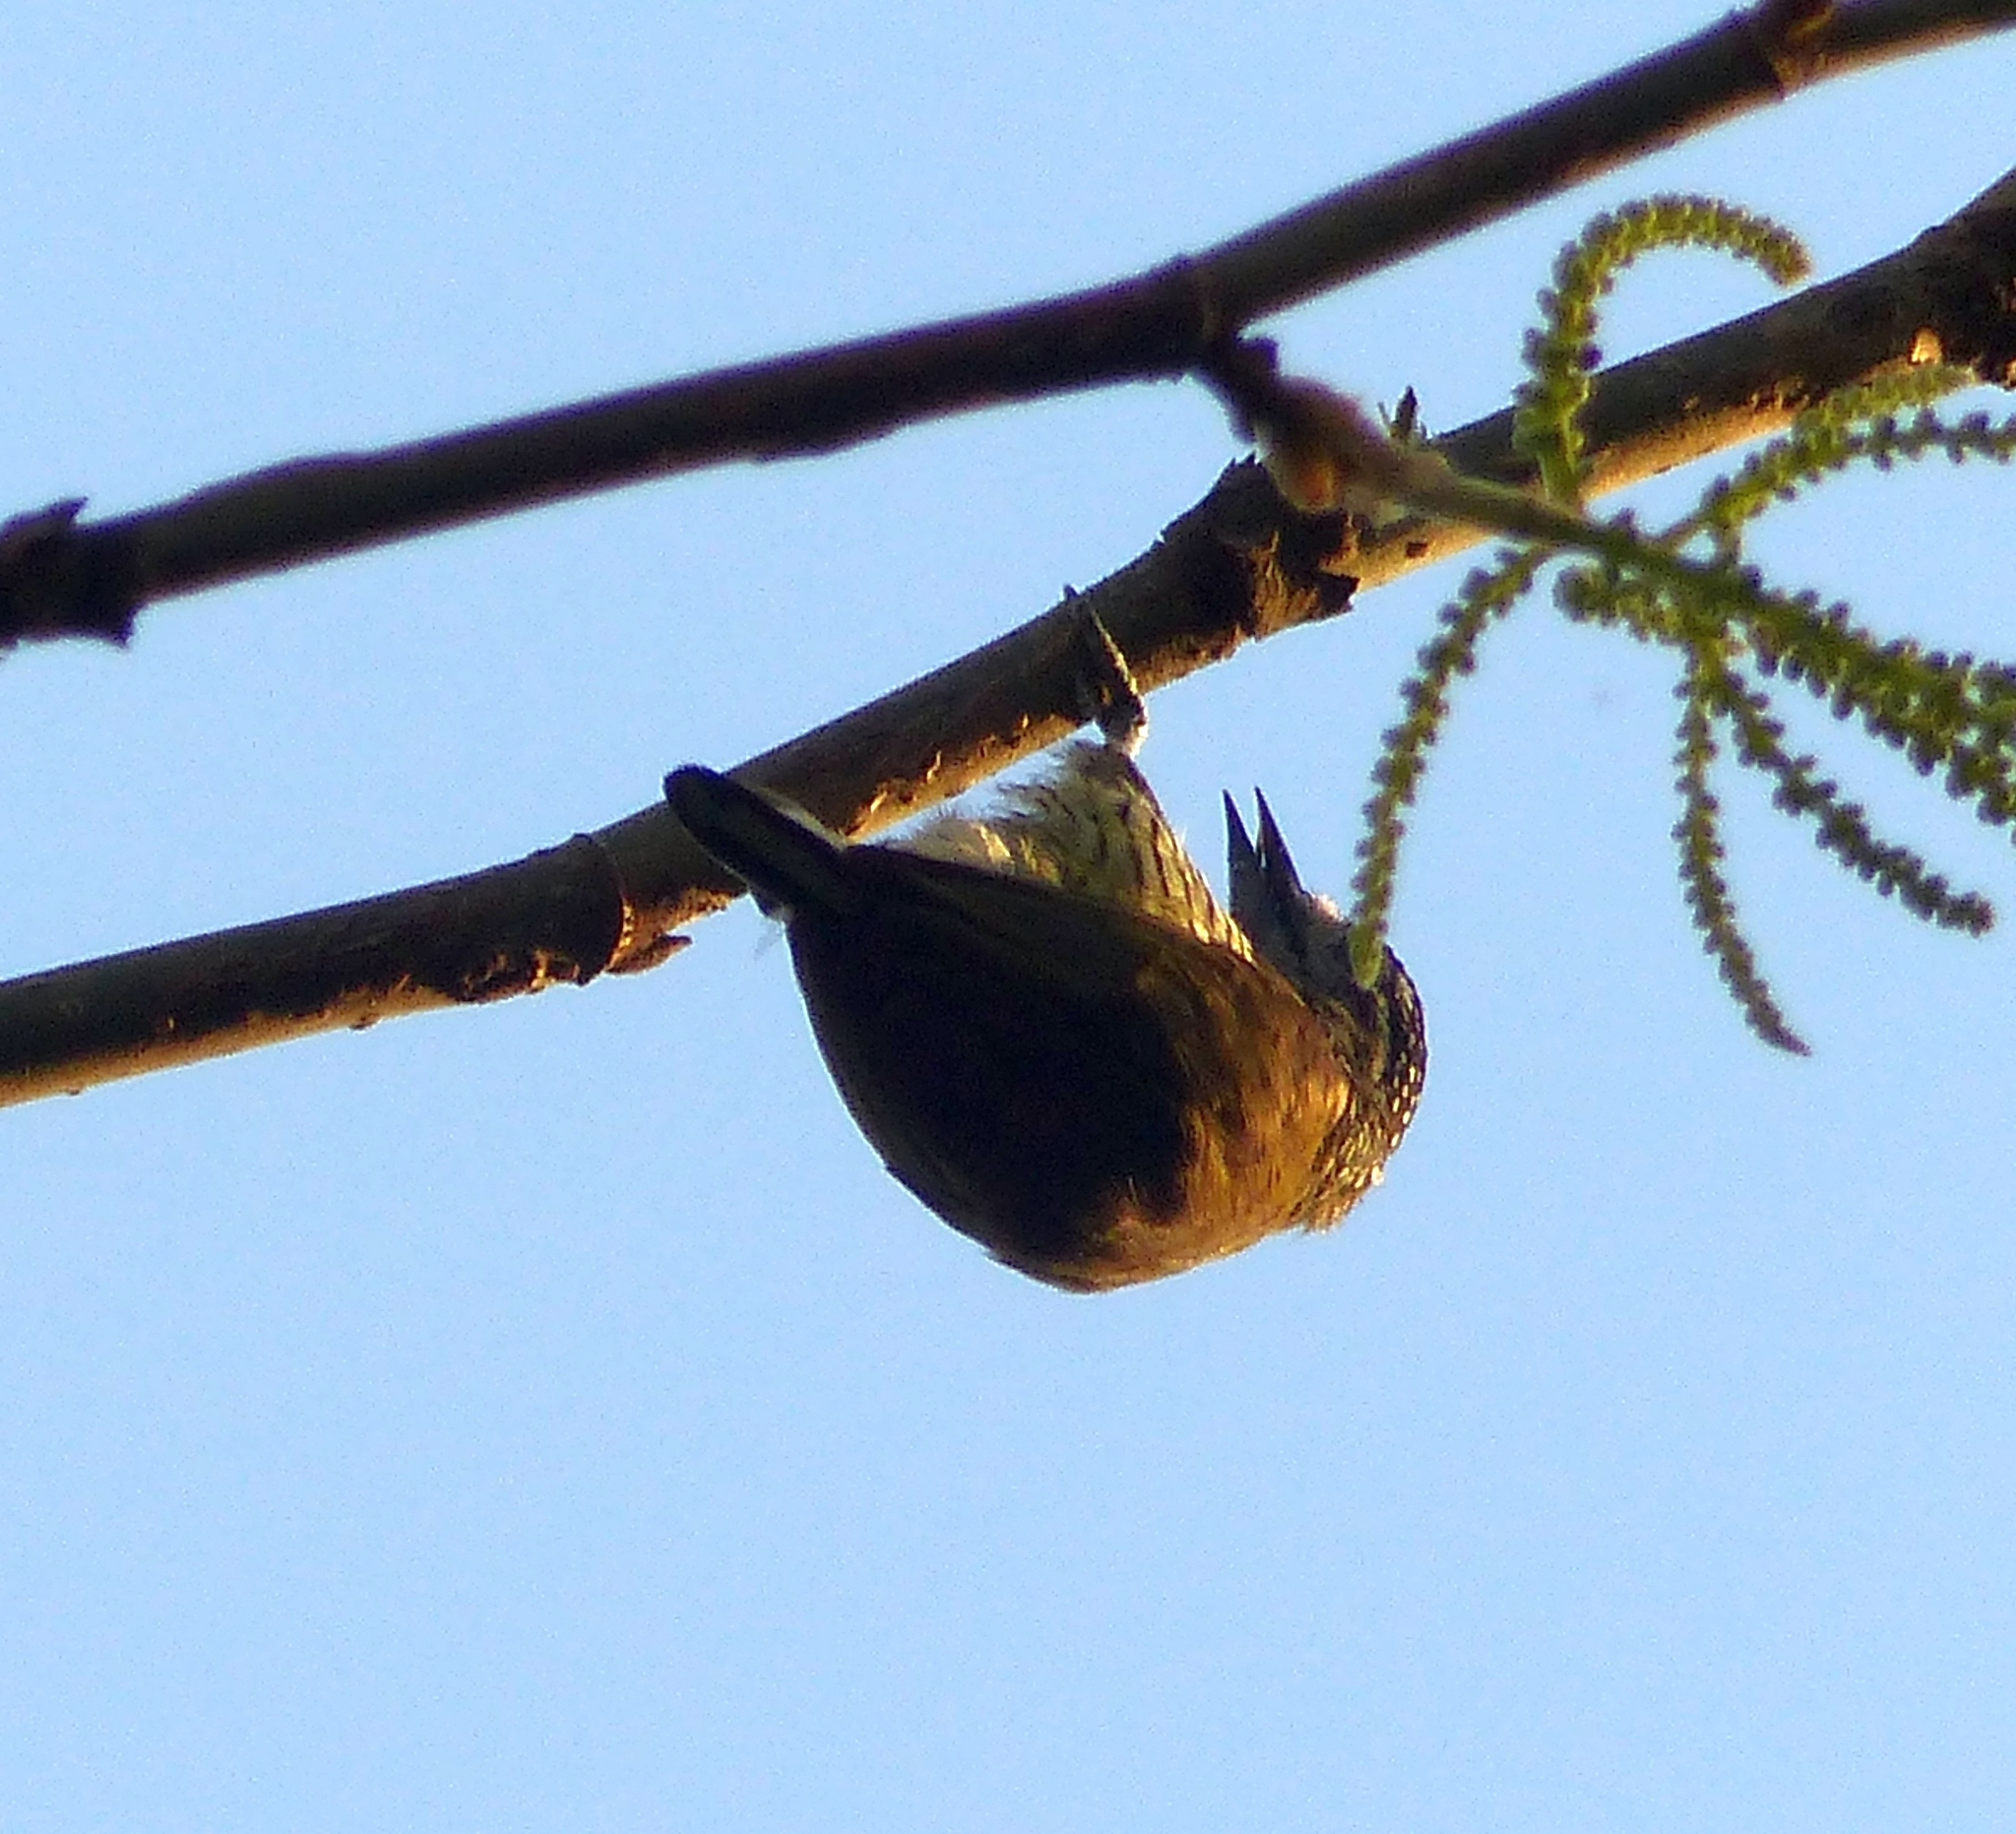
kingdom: Animalia
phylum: Chordata
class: Aves
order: Piciformes
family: Picidae
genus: Picumnus
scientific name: Picumnus exilis
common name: Golden-spangled piculet
